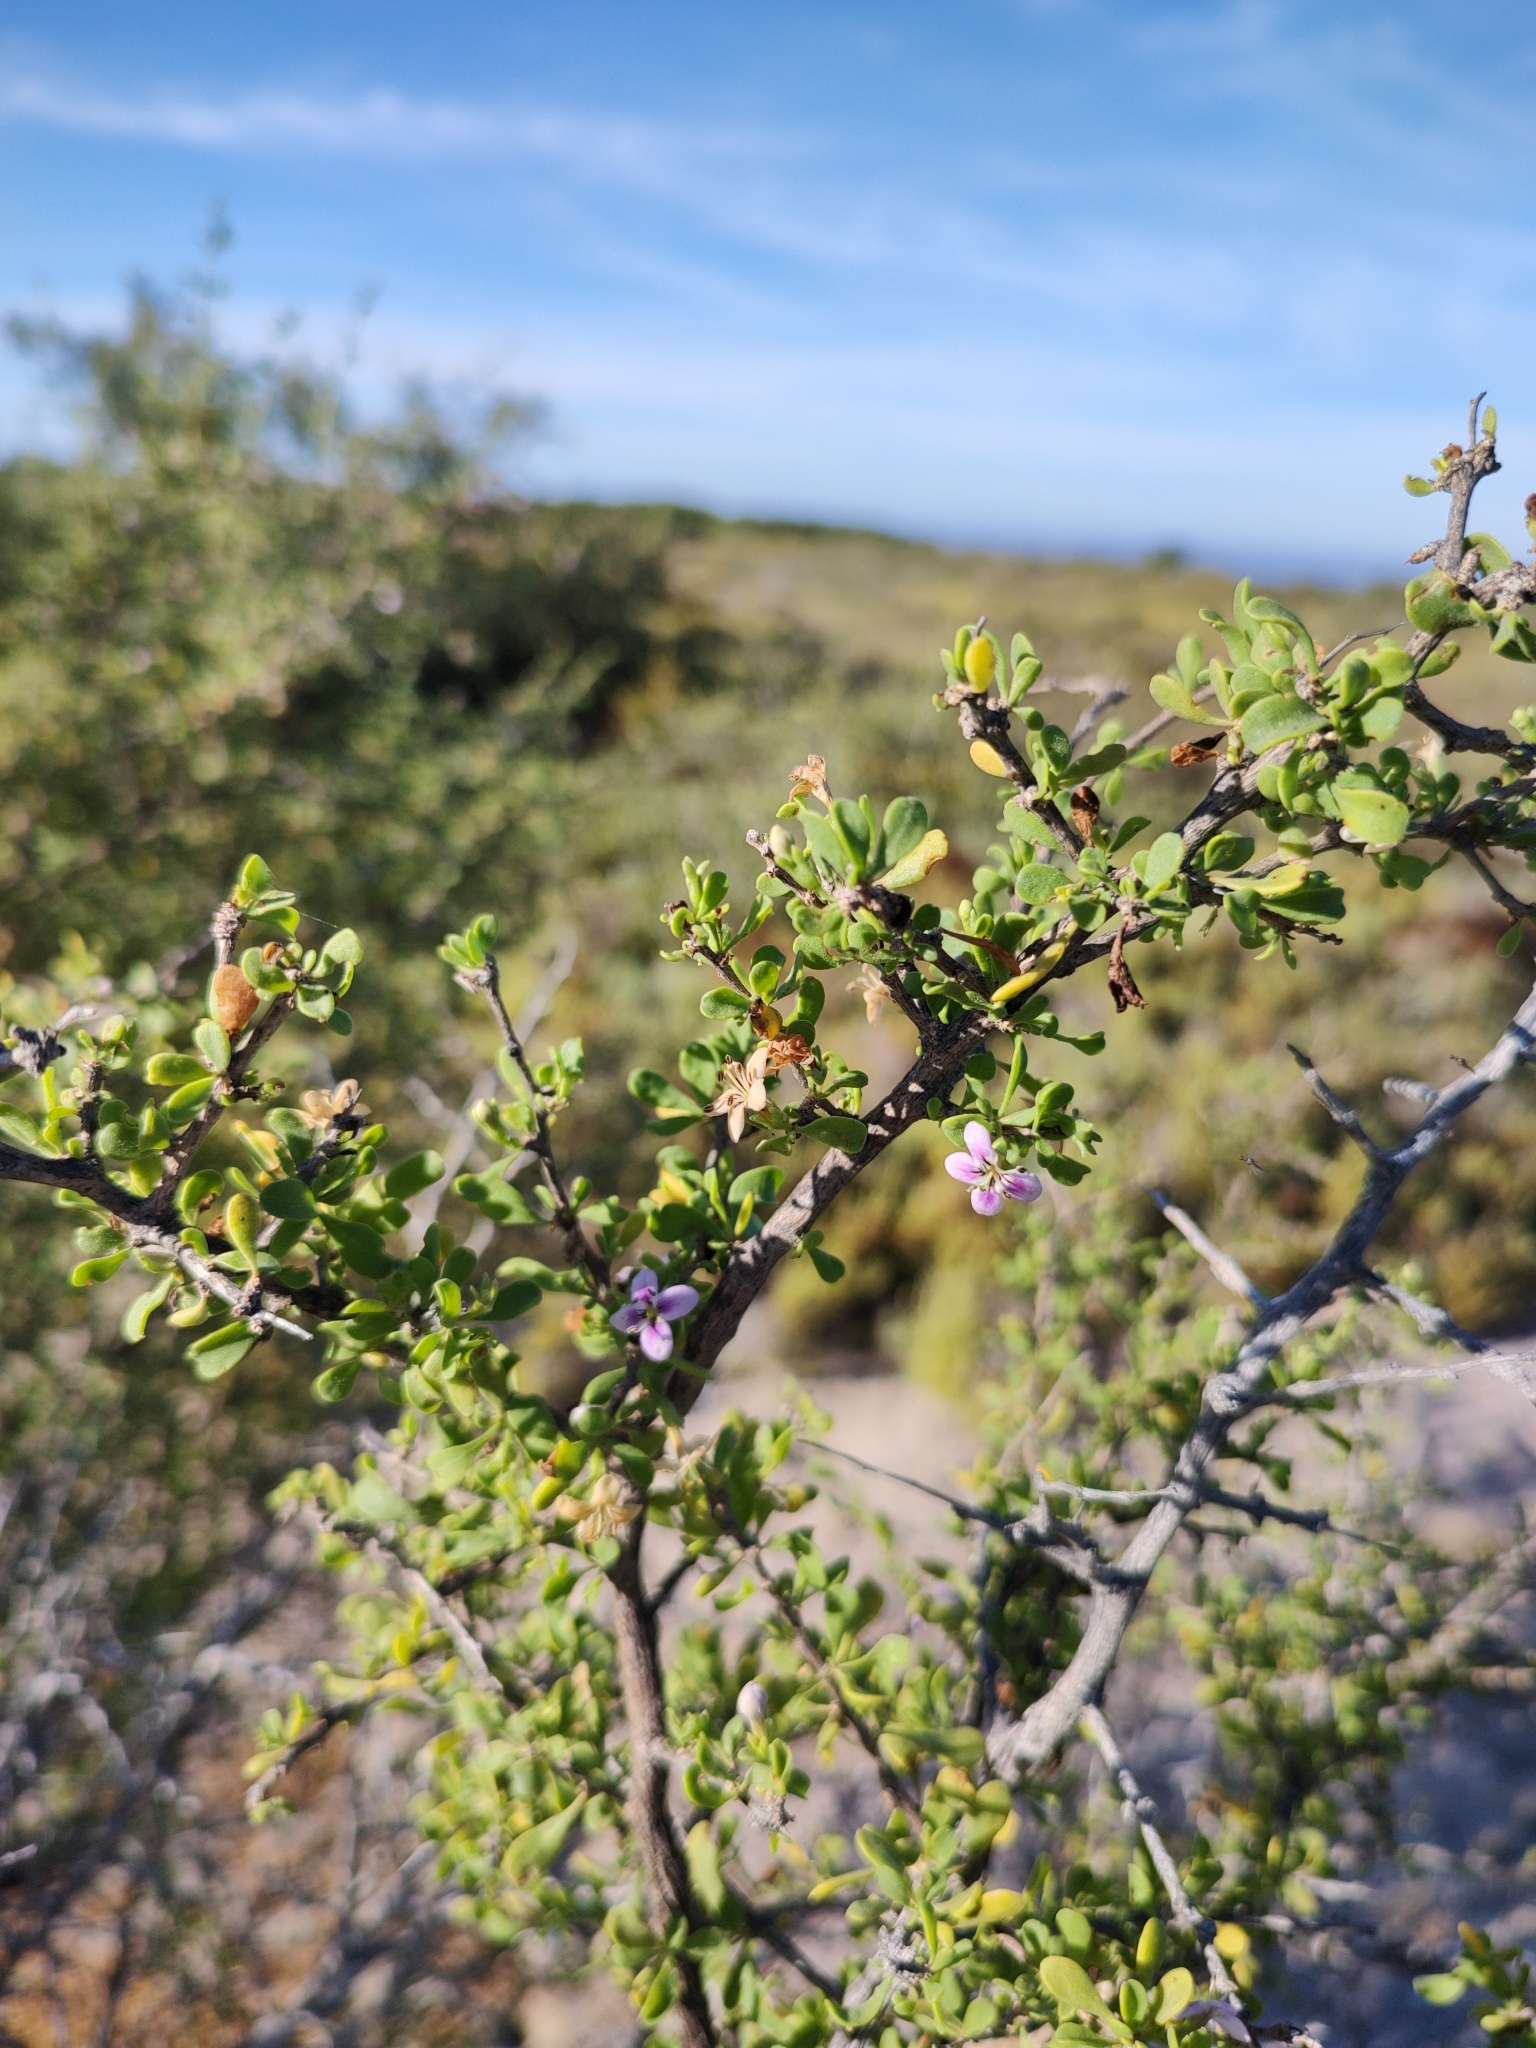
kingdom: Plantae
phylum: Tracheophyta
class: Magnoliopsida
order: Solanales
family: Solanaceae
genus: Lycium
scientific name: Lycium brevipes
